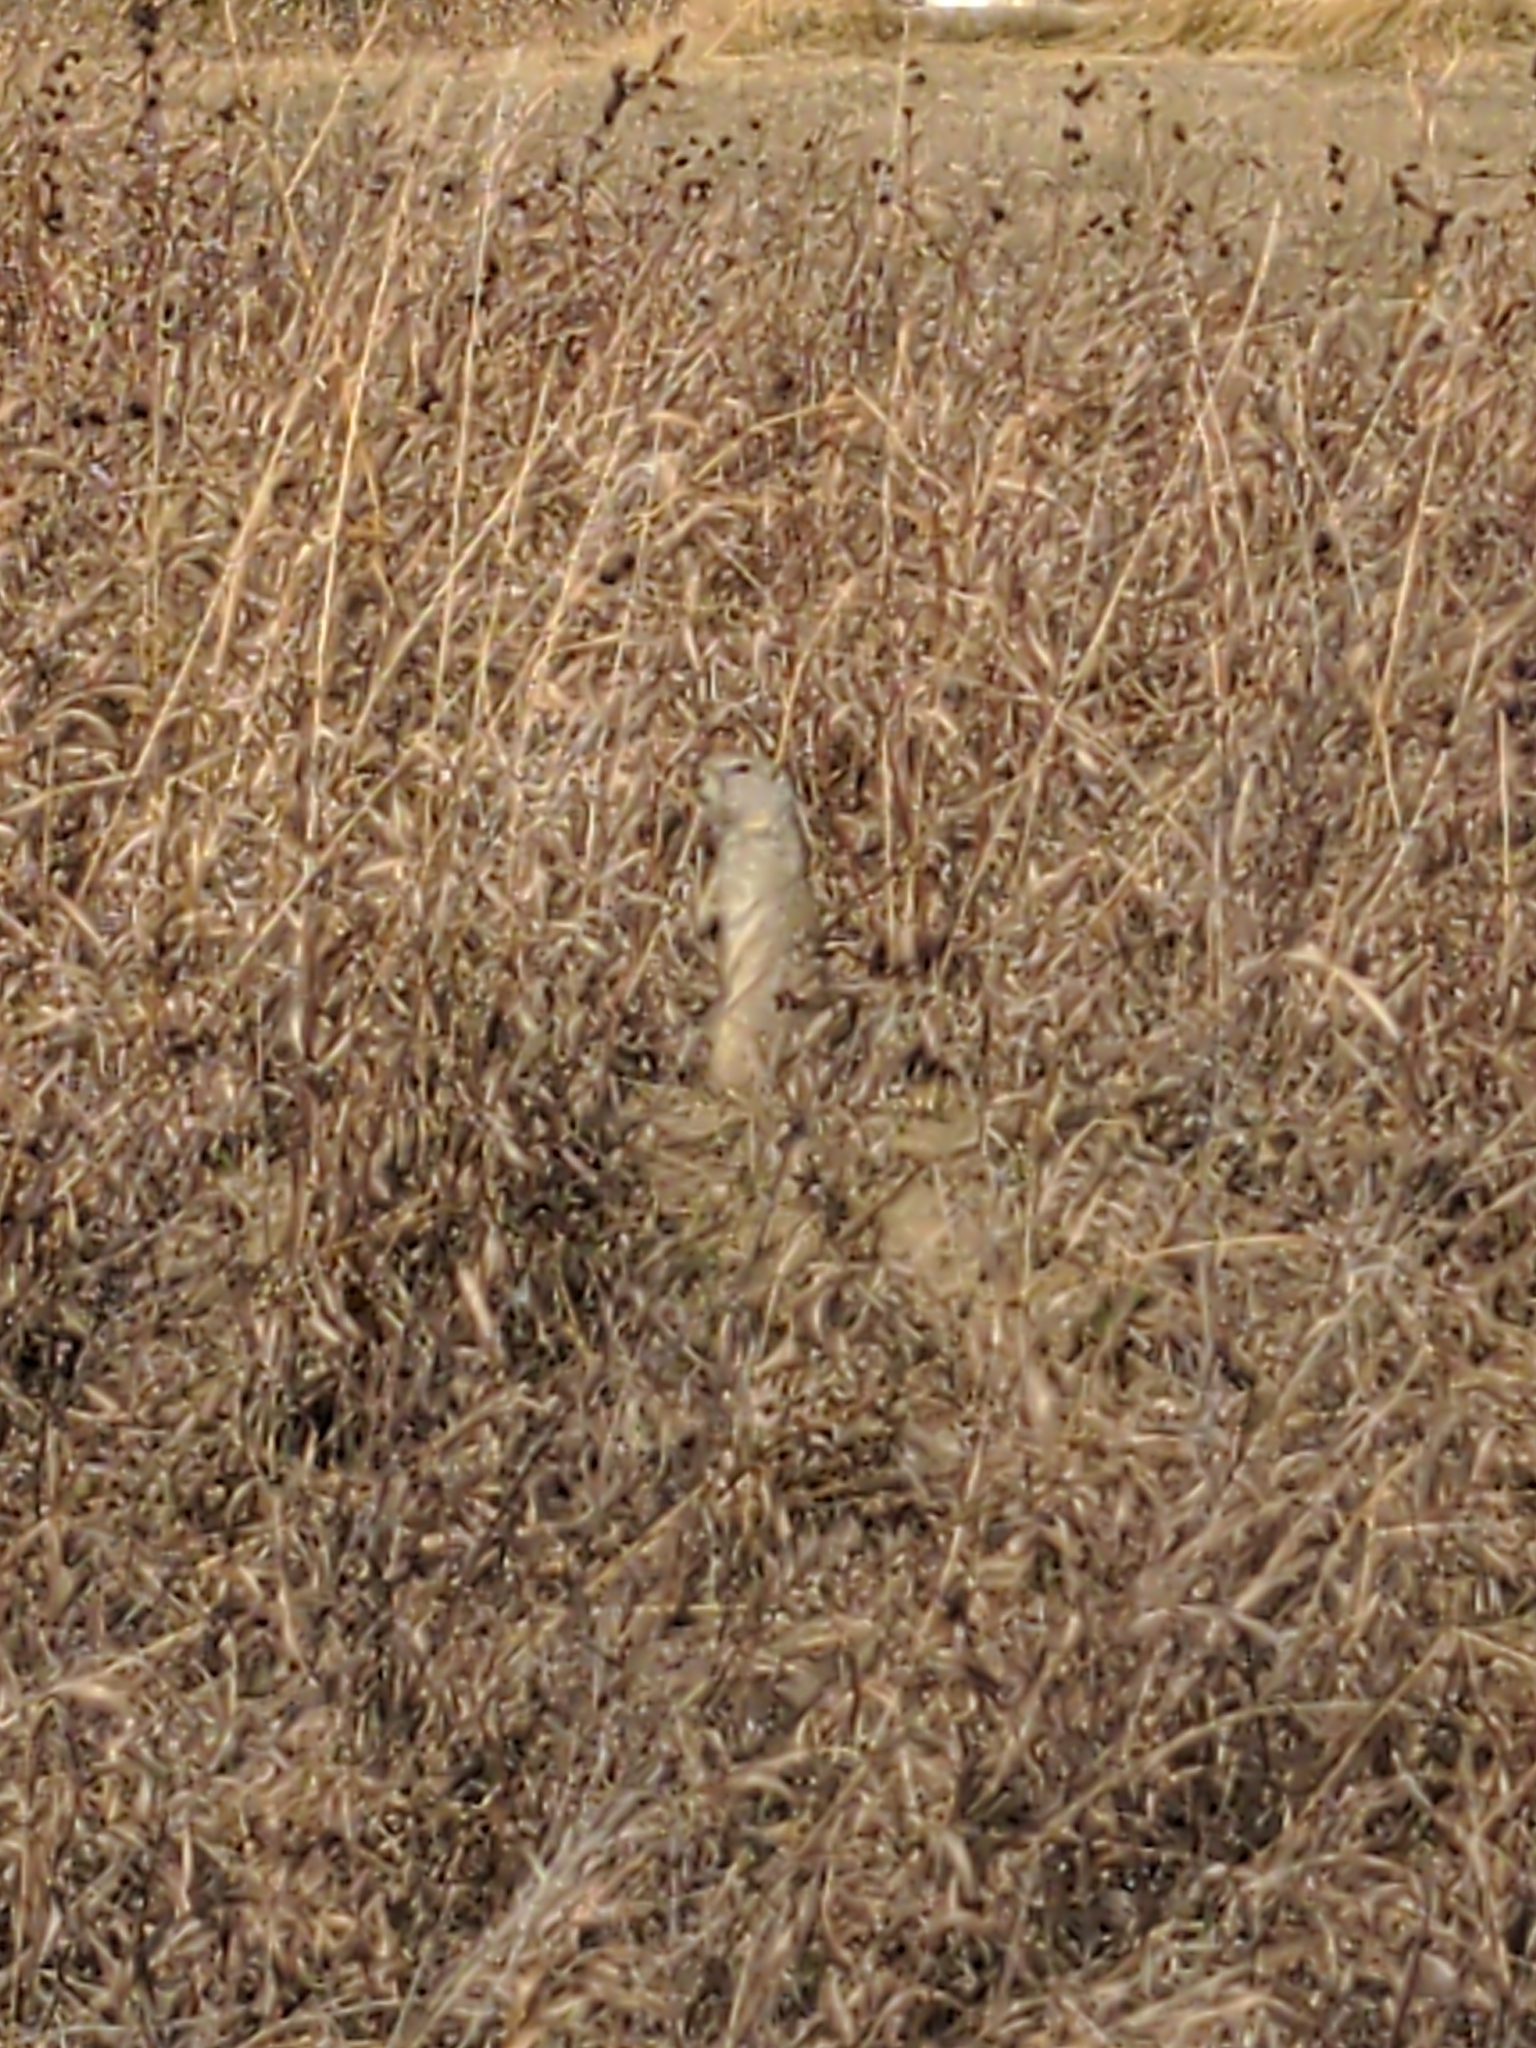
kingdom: Animalia
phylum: Chordata
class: Mammalia
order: Rodentia
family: Sciuridae
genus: Urocitellus
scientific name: Urocitellus richardsonii
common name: Richardson's ground squirrel
